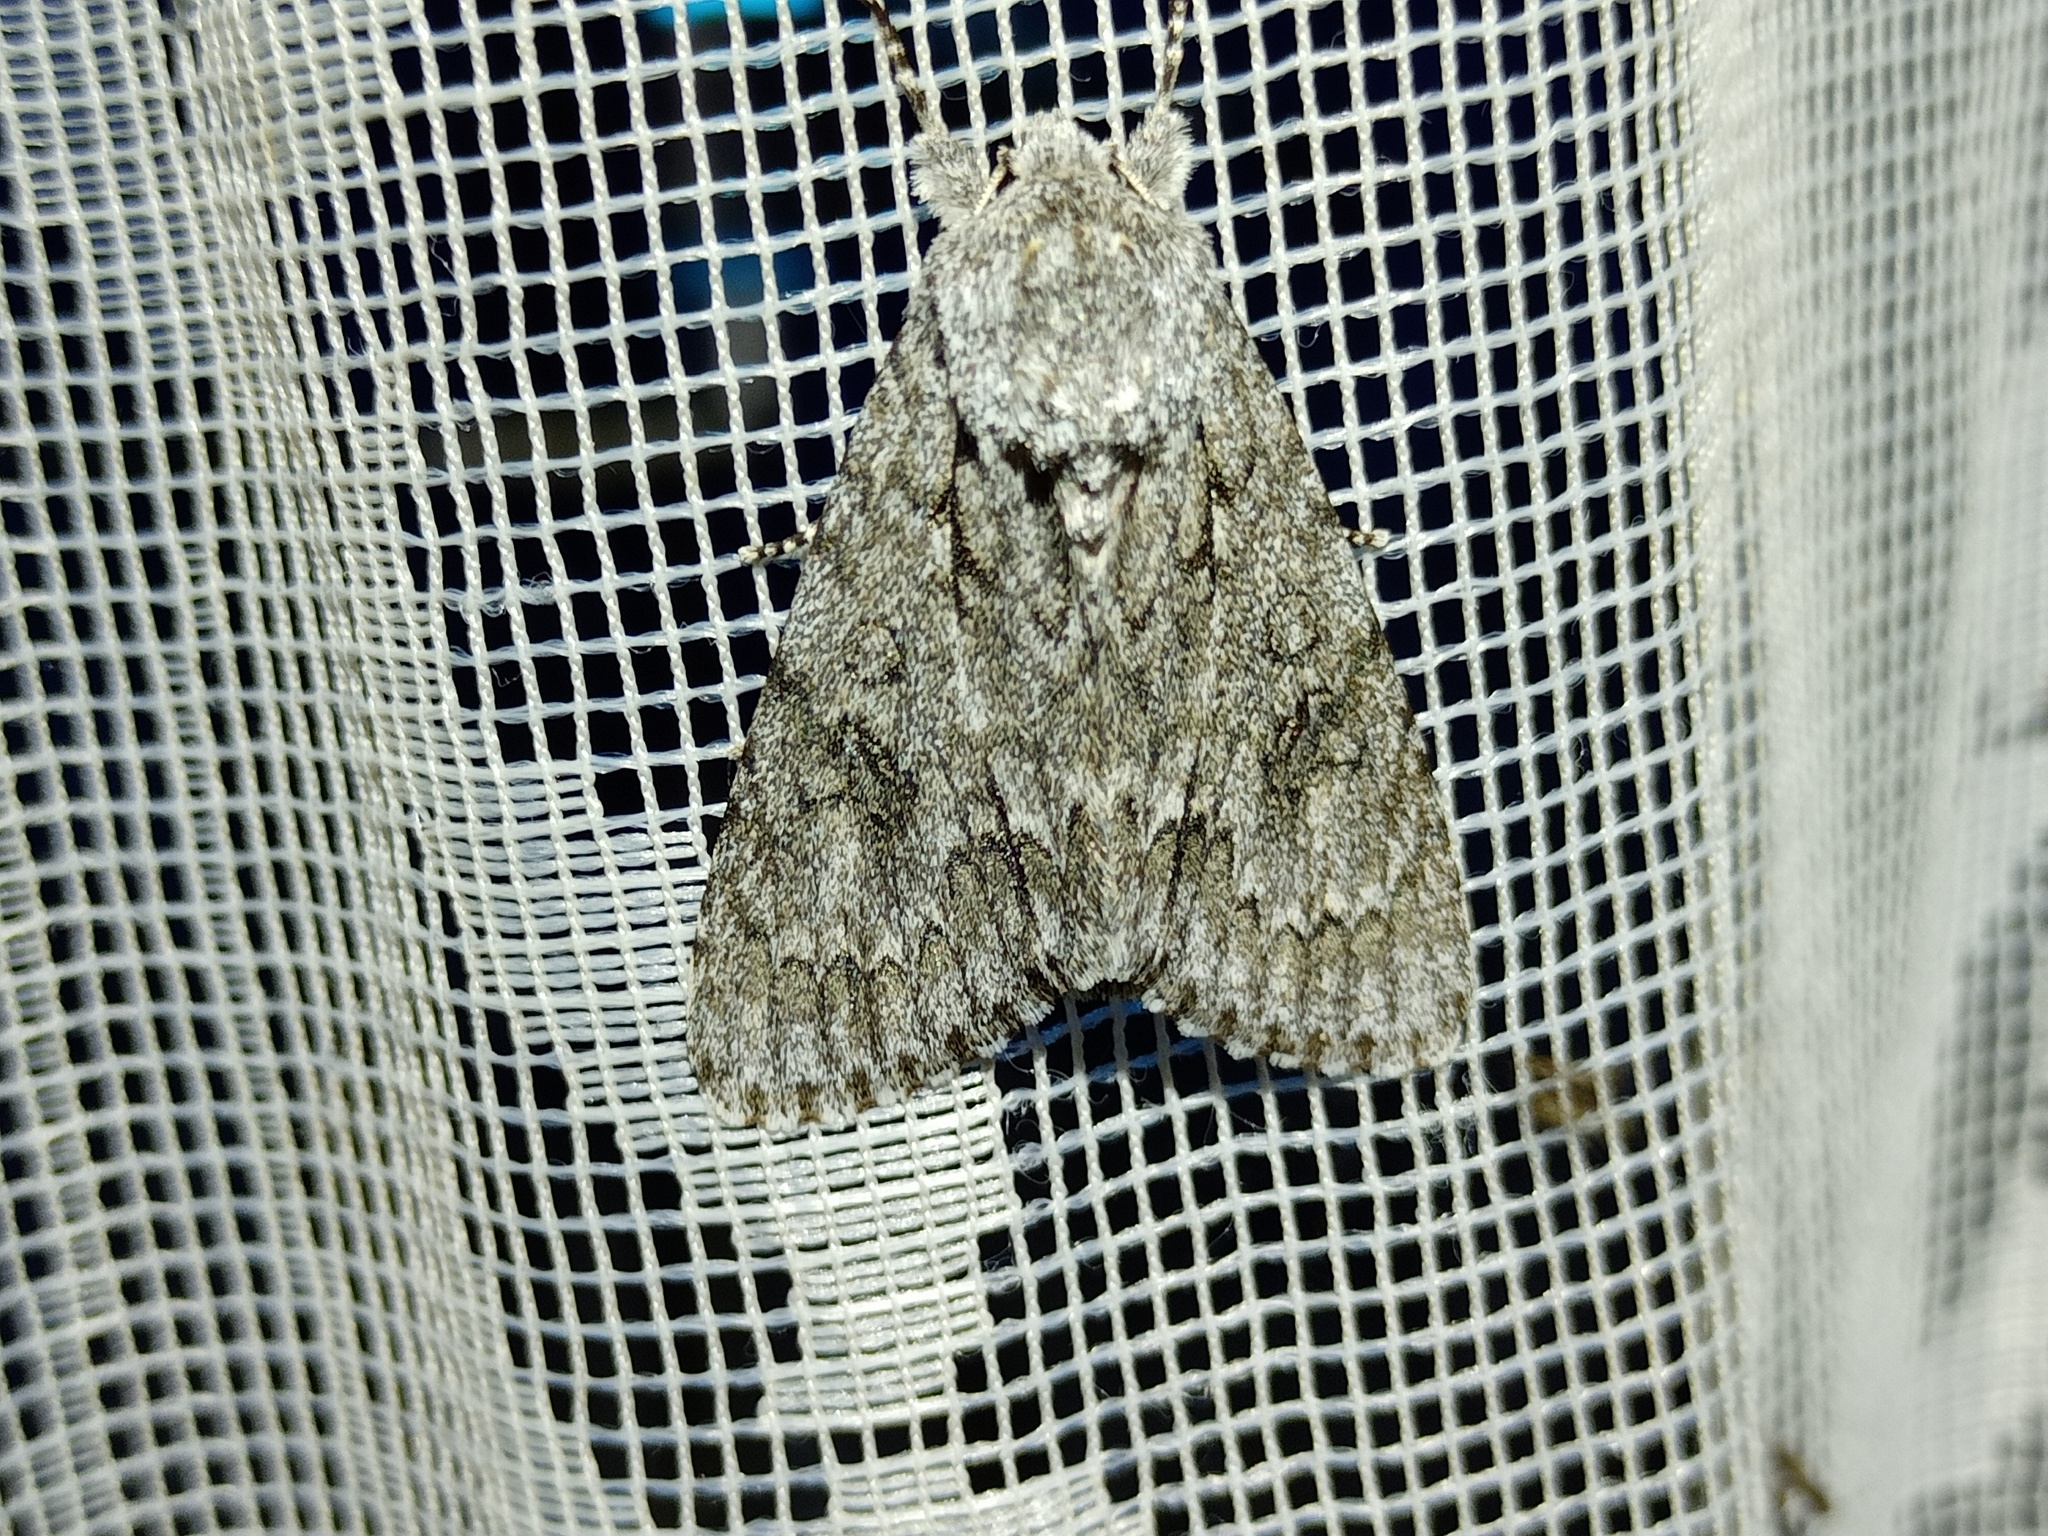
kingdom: Animalia
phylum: Arthropoda
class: Insecta
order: Lepidoptera
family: Noctuidae
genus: Acronicta
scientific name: Acronicta aceris
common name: Sycamore
